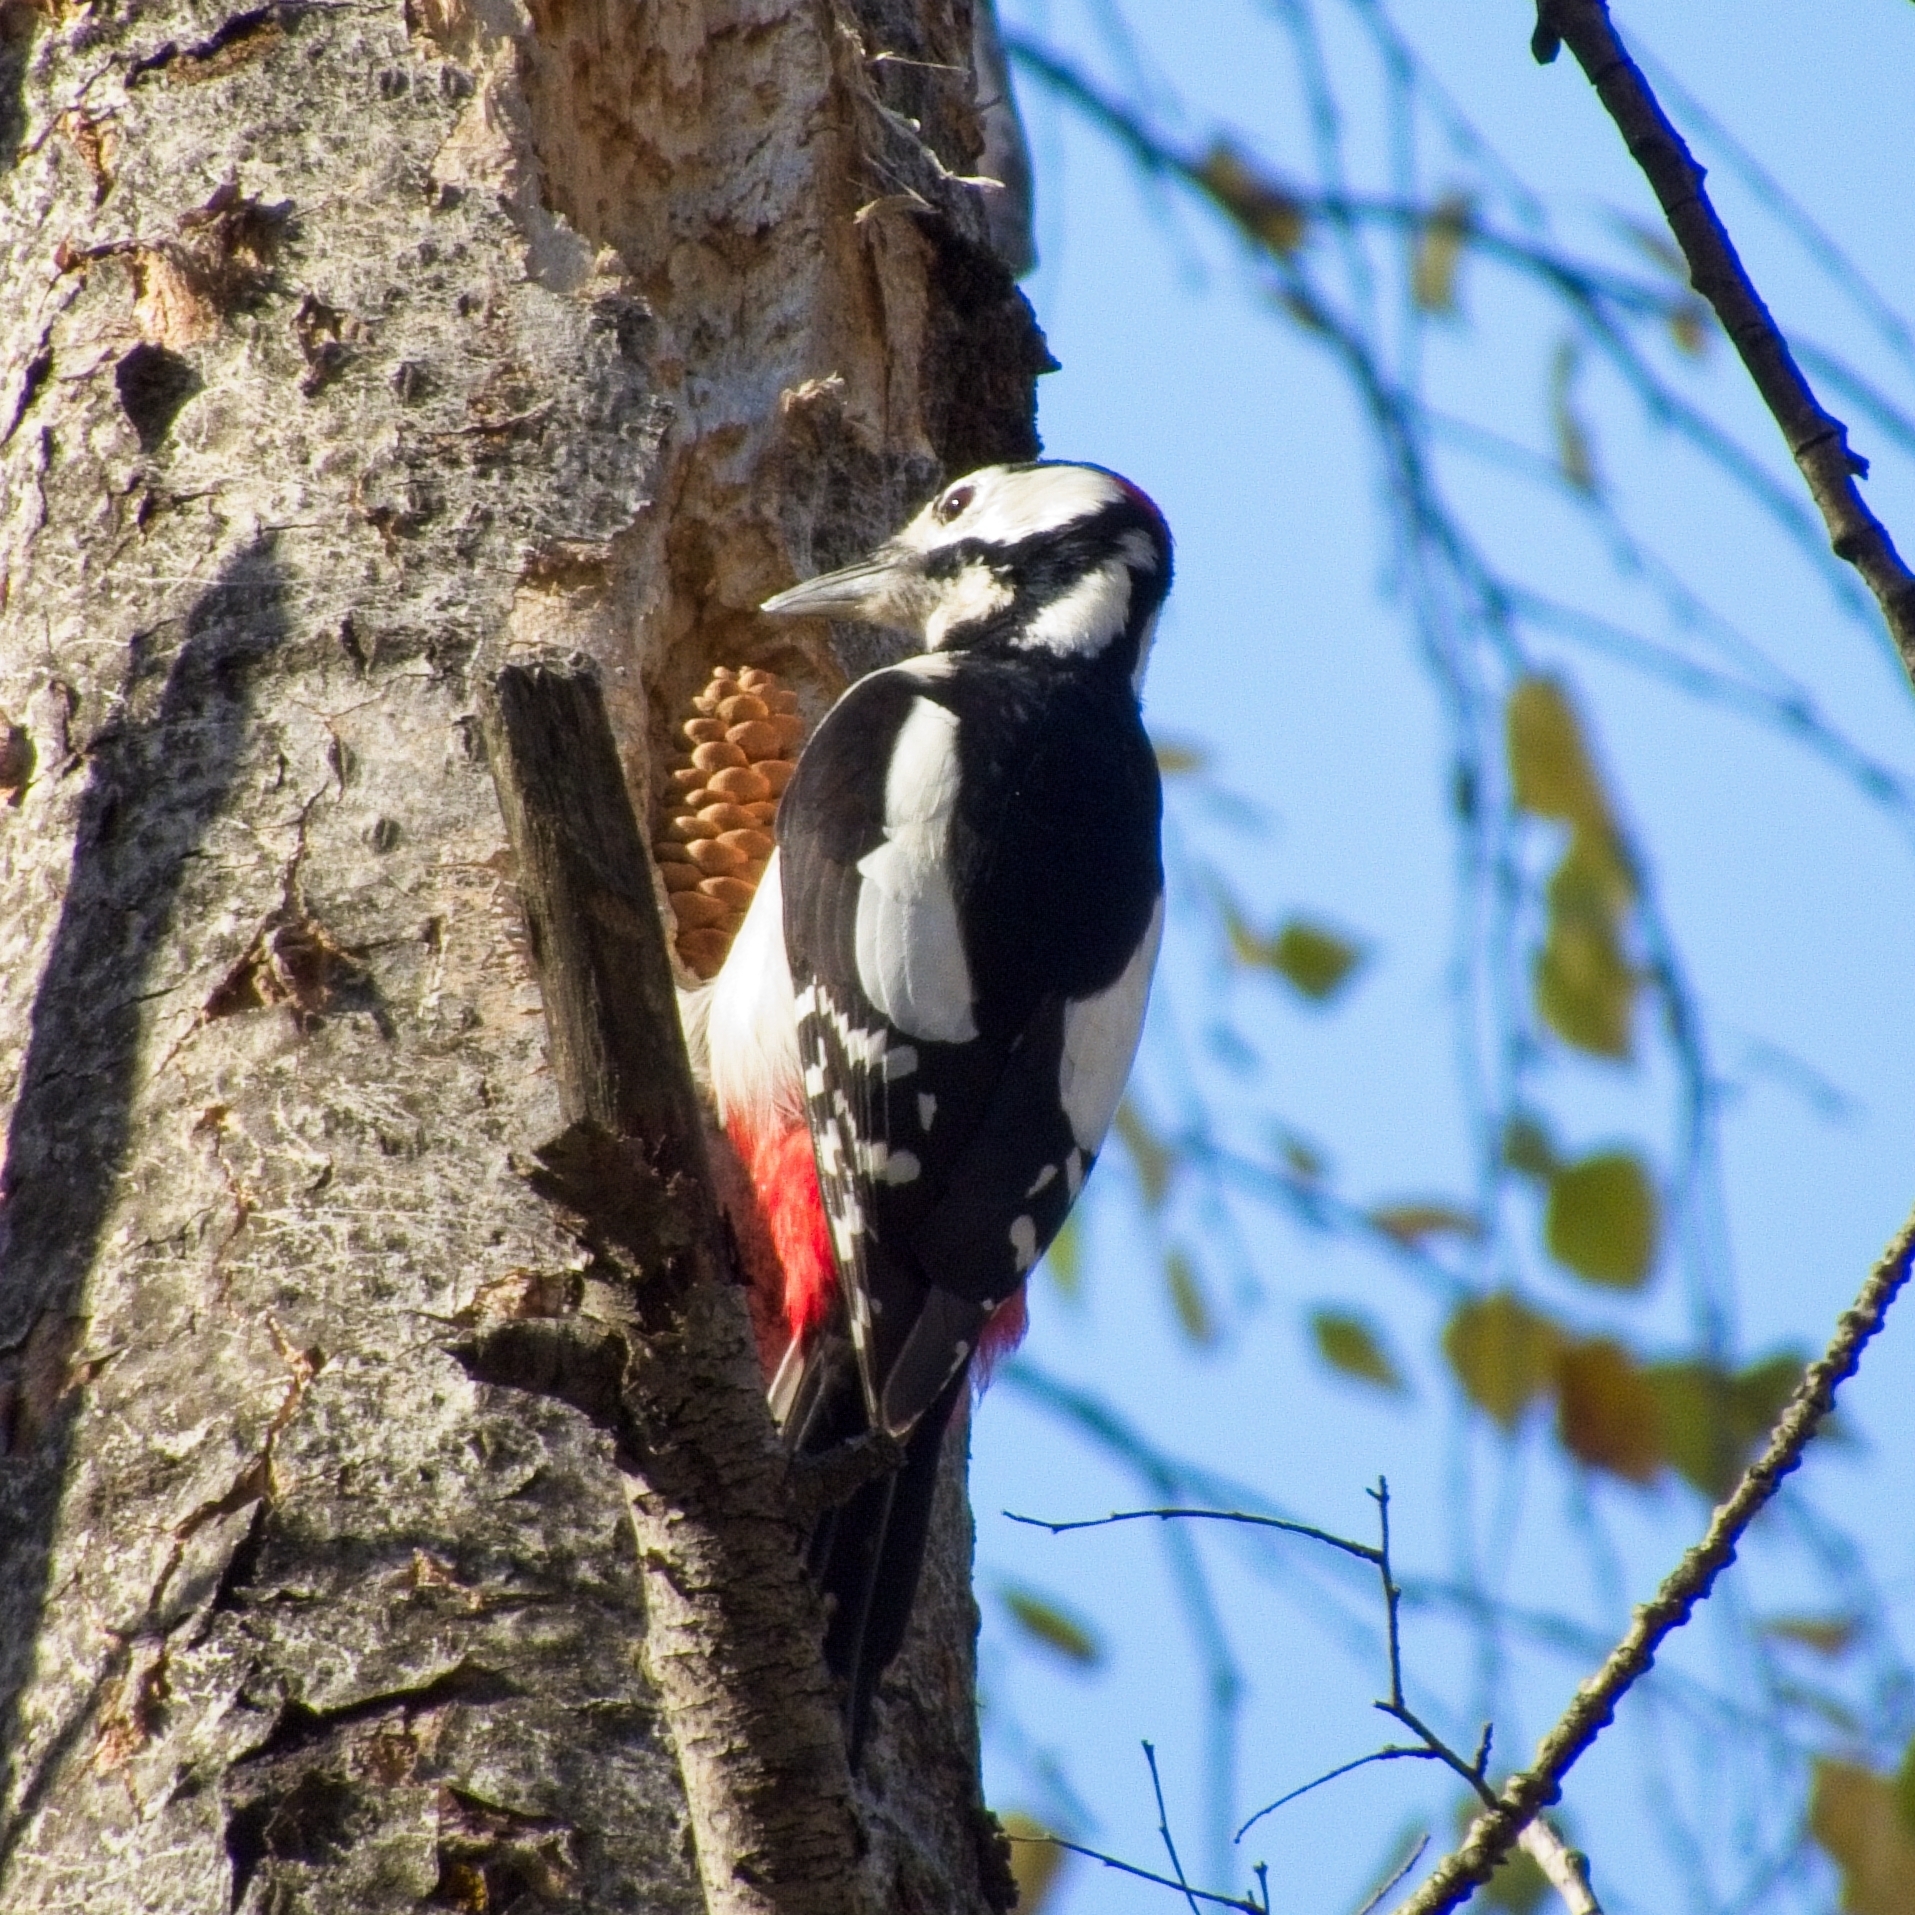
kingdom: Animalia
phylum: Chordata
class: Aves
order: Piciformes
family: Picidae
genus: Dendrocopos
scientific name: Dendrocopos major
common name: Great spotted woodpecker
